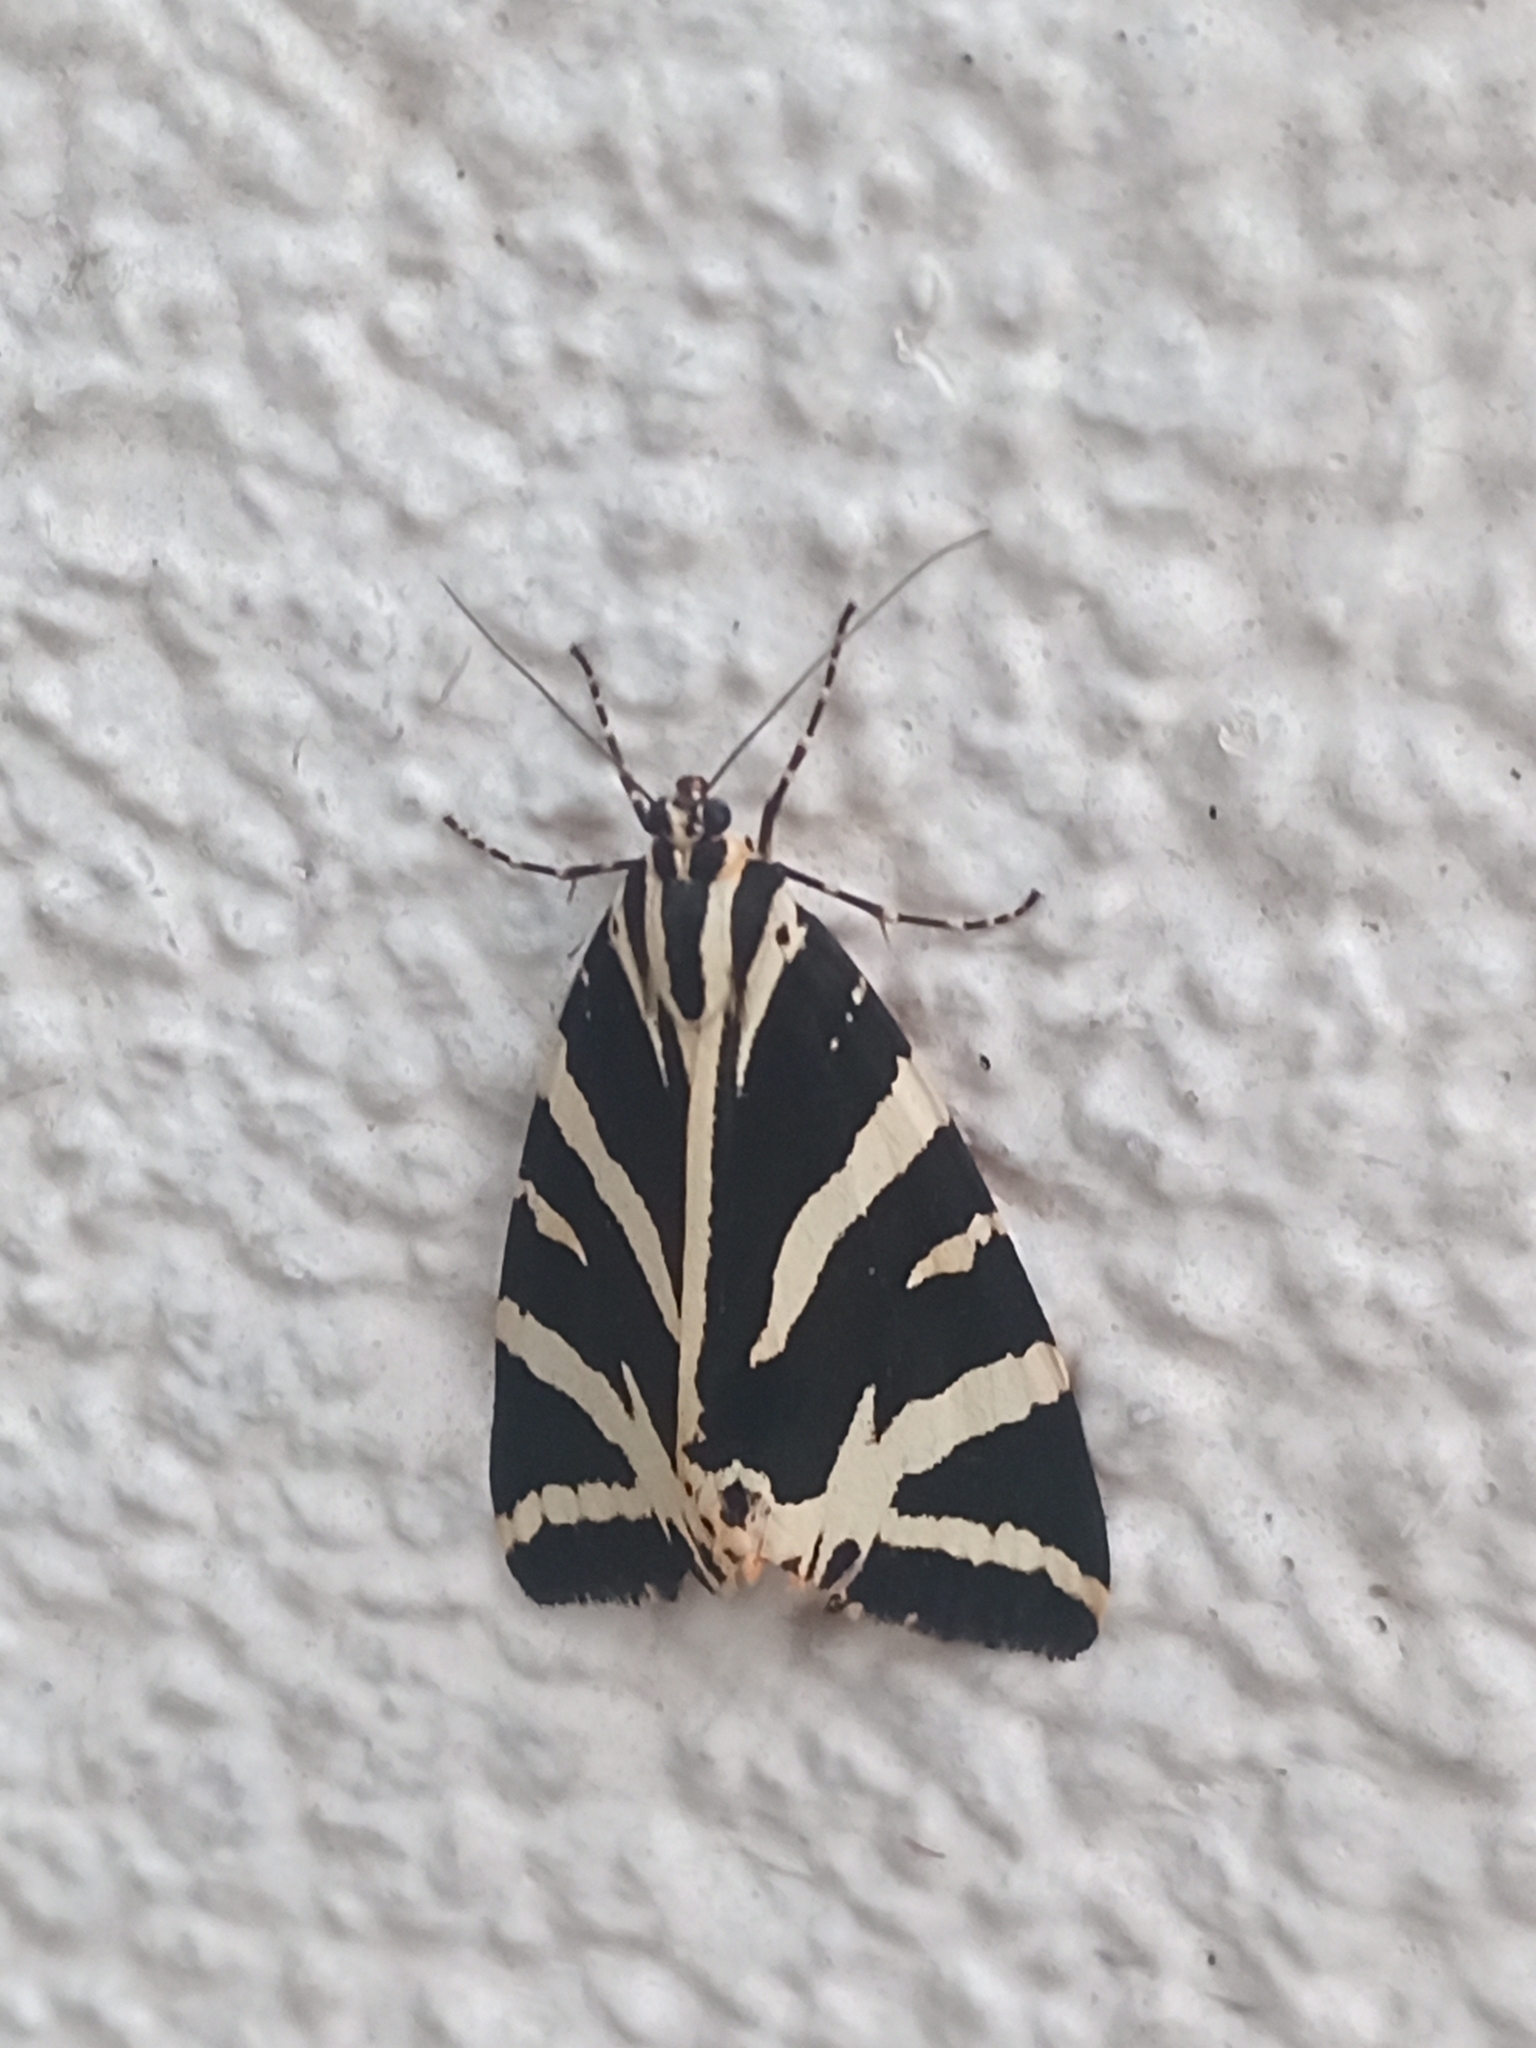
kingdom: Animalia
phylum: Arthropoda
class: Insecta
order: Lepidoptera
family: Erebidae
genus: Euplagia
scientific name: Euplagia quadripunctaria
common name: Jersey tiger
